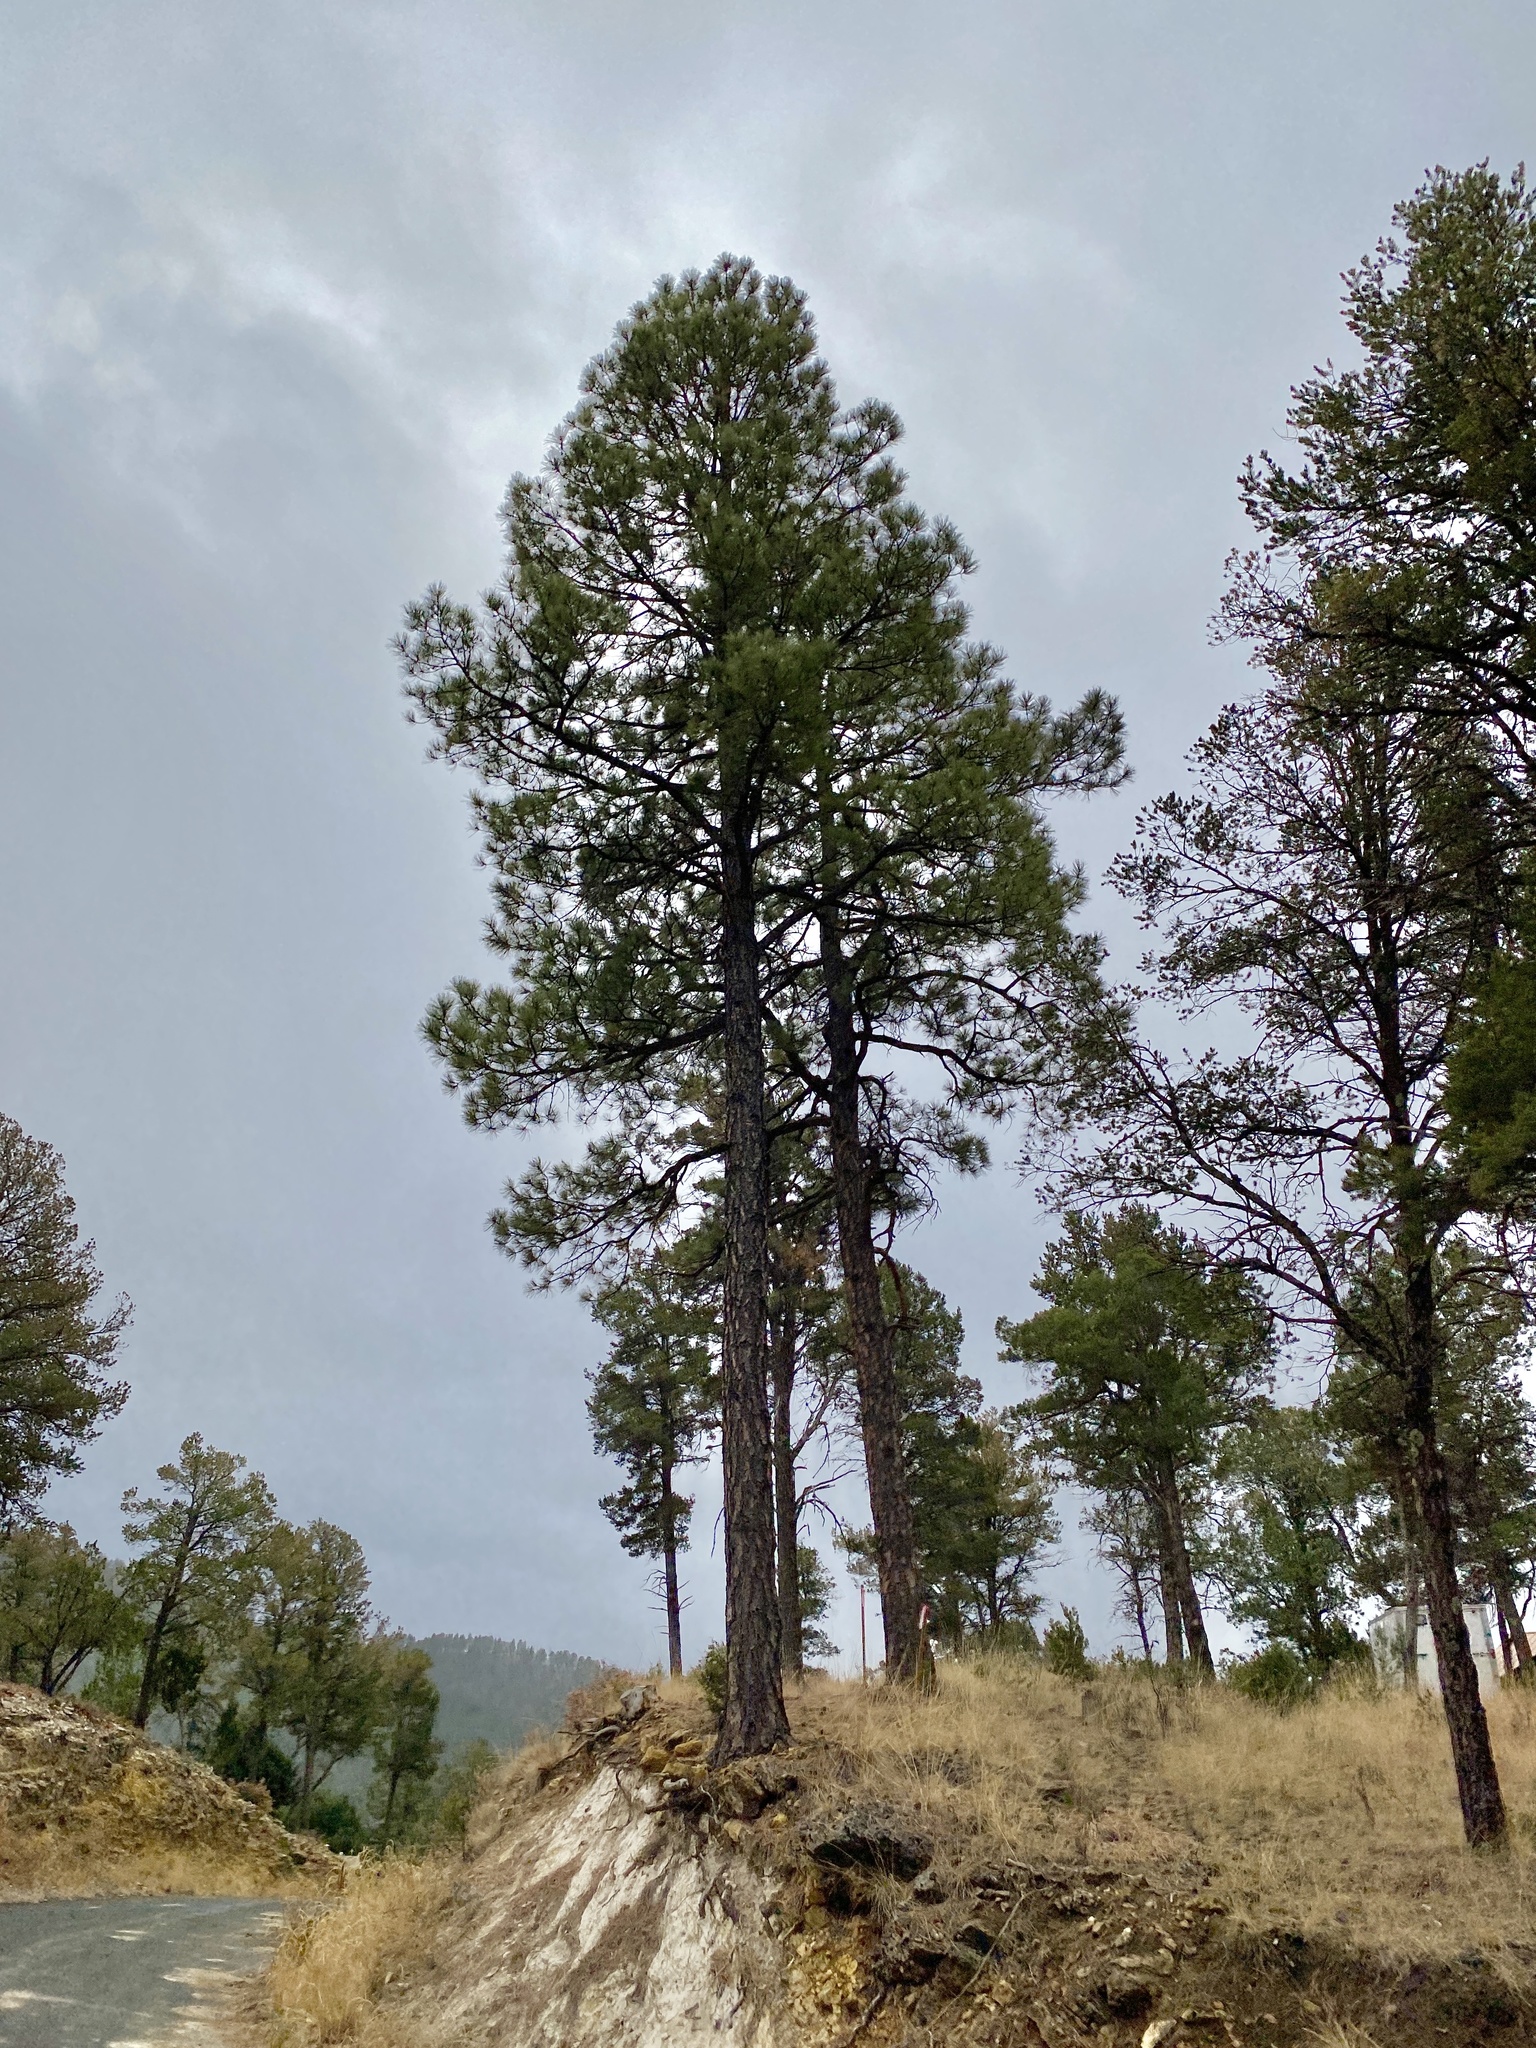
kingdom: Plantae
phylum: Tracheophyta
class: Pinopsida
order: Pinales
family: Pinaceae
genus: Pinus
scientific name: Pinus ponderosa
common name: Western yellow-pine
